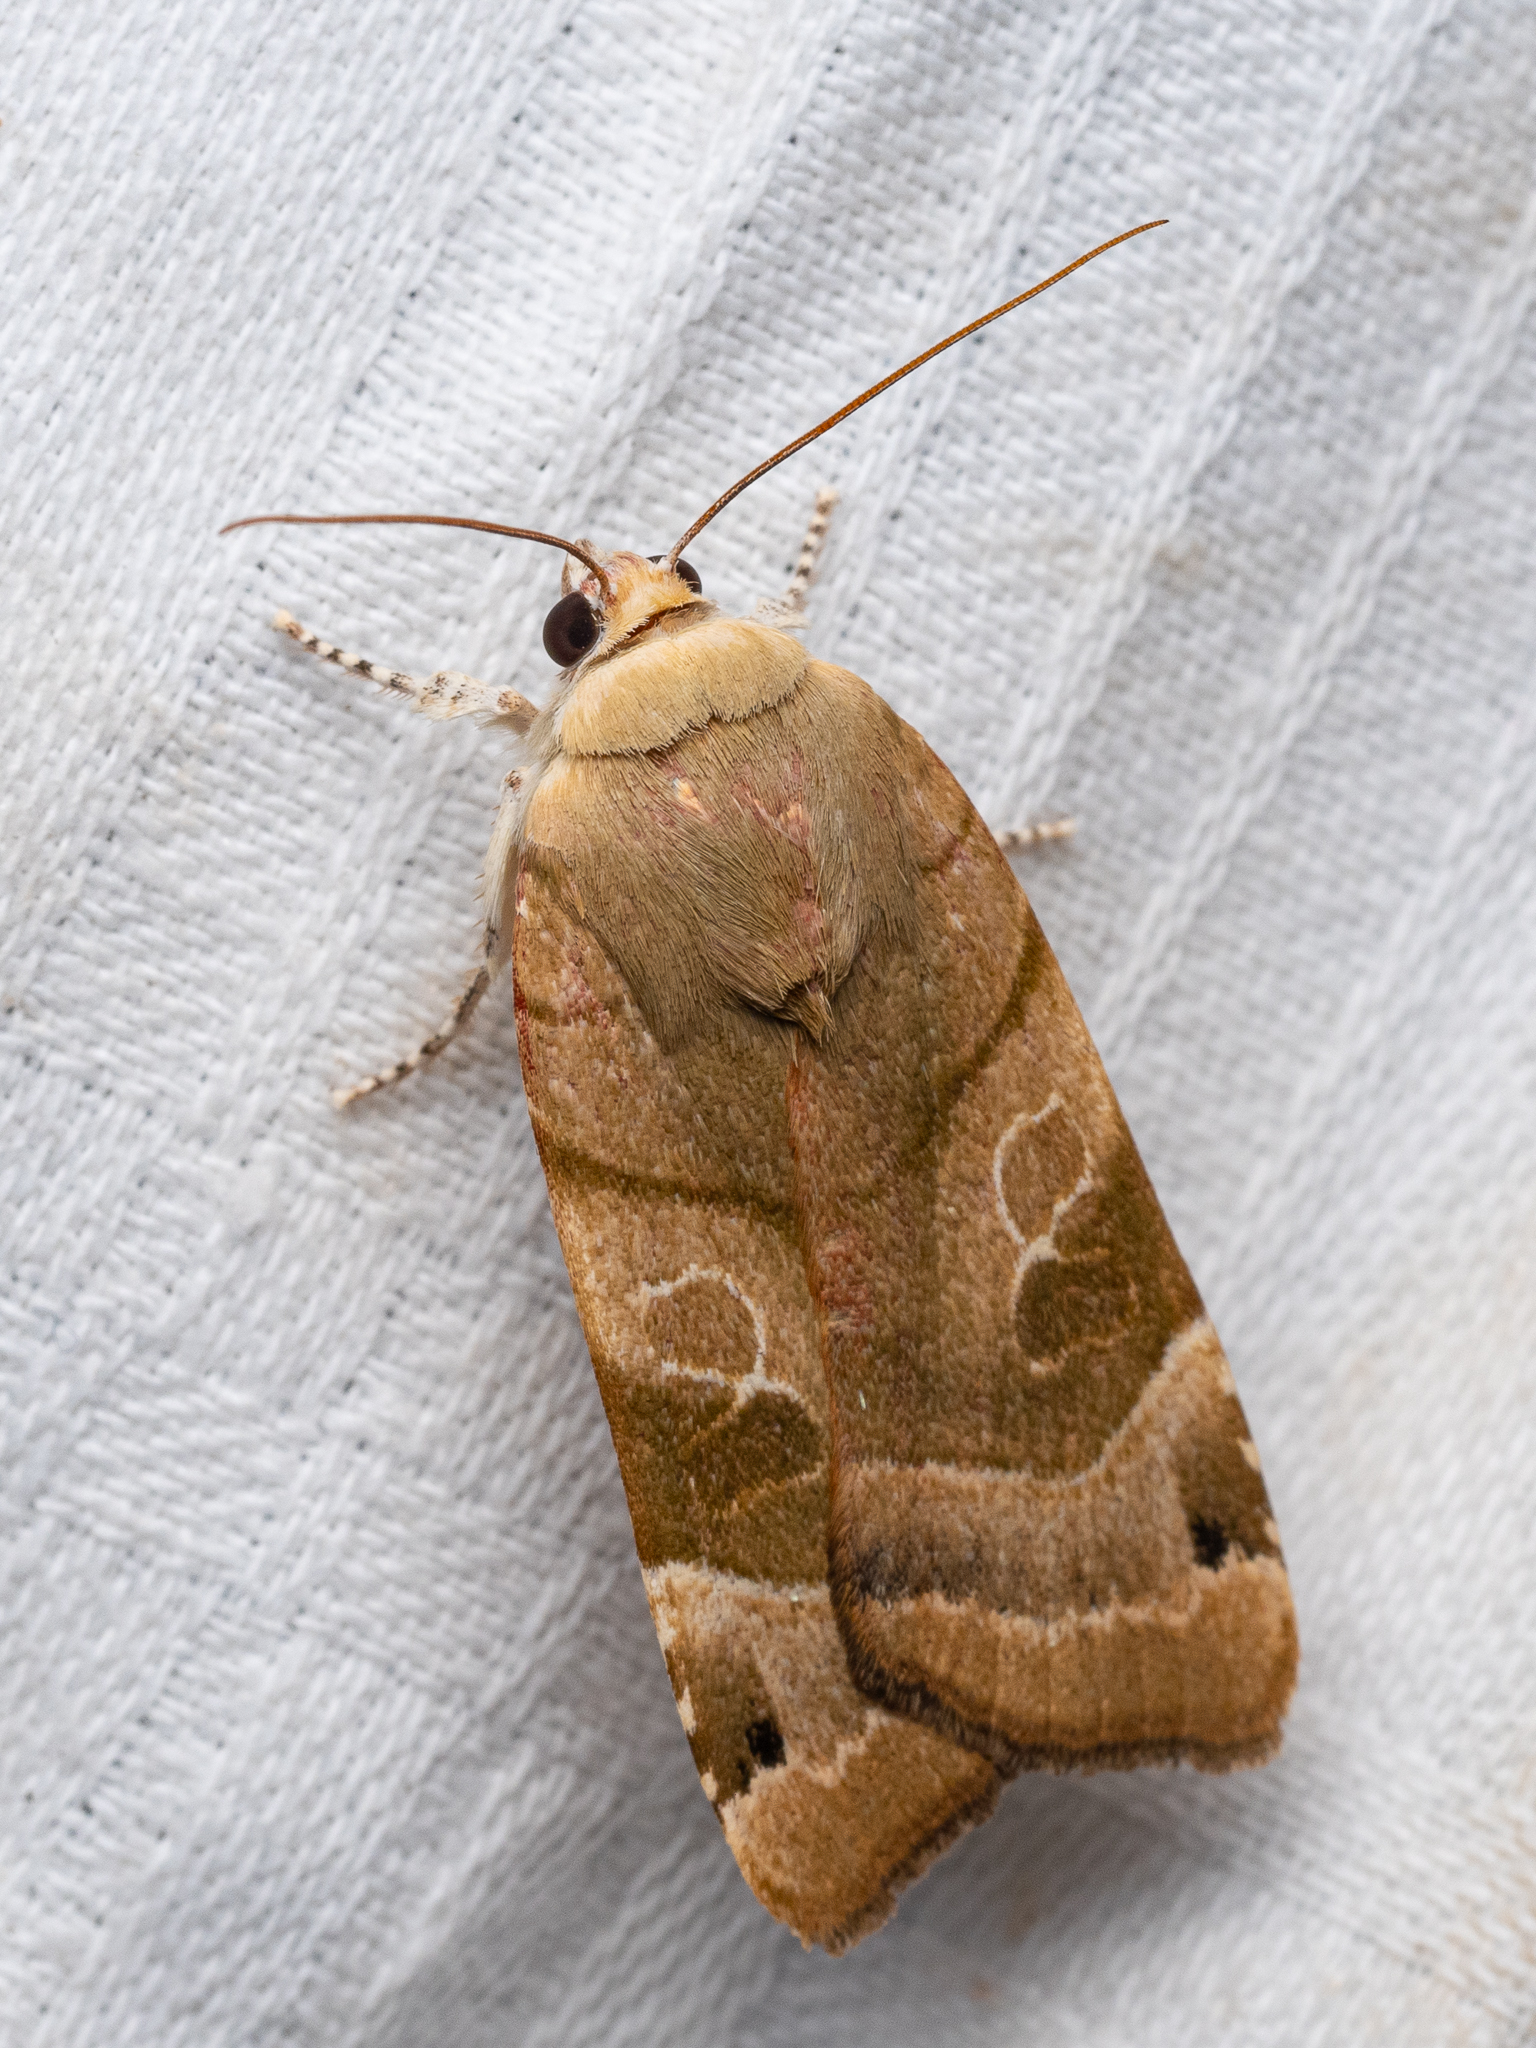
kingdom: Animalia
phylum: Arthropoda
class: Insecta
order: Lepidoptera
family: Noctuidae
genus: Noctua
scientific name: Noctua fimbriata
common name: Broad-bordered yellow underwing
